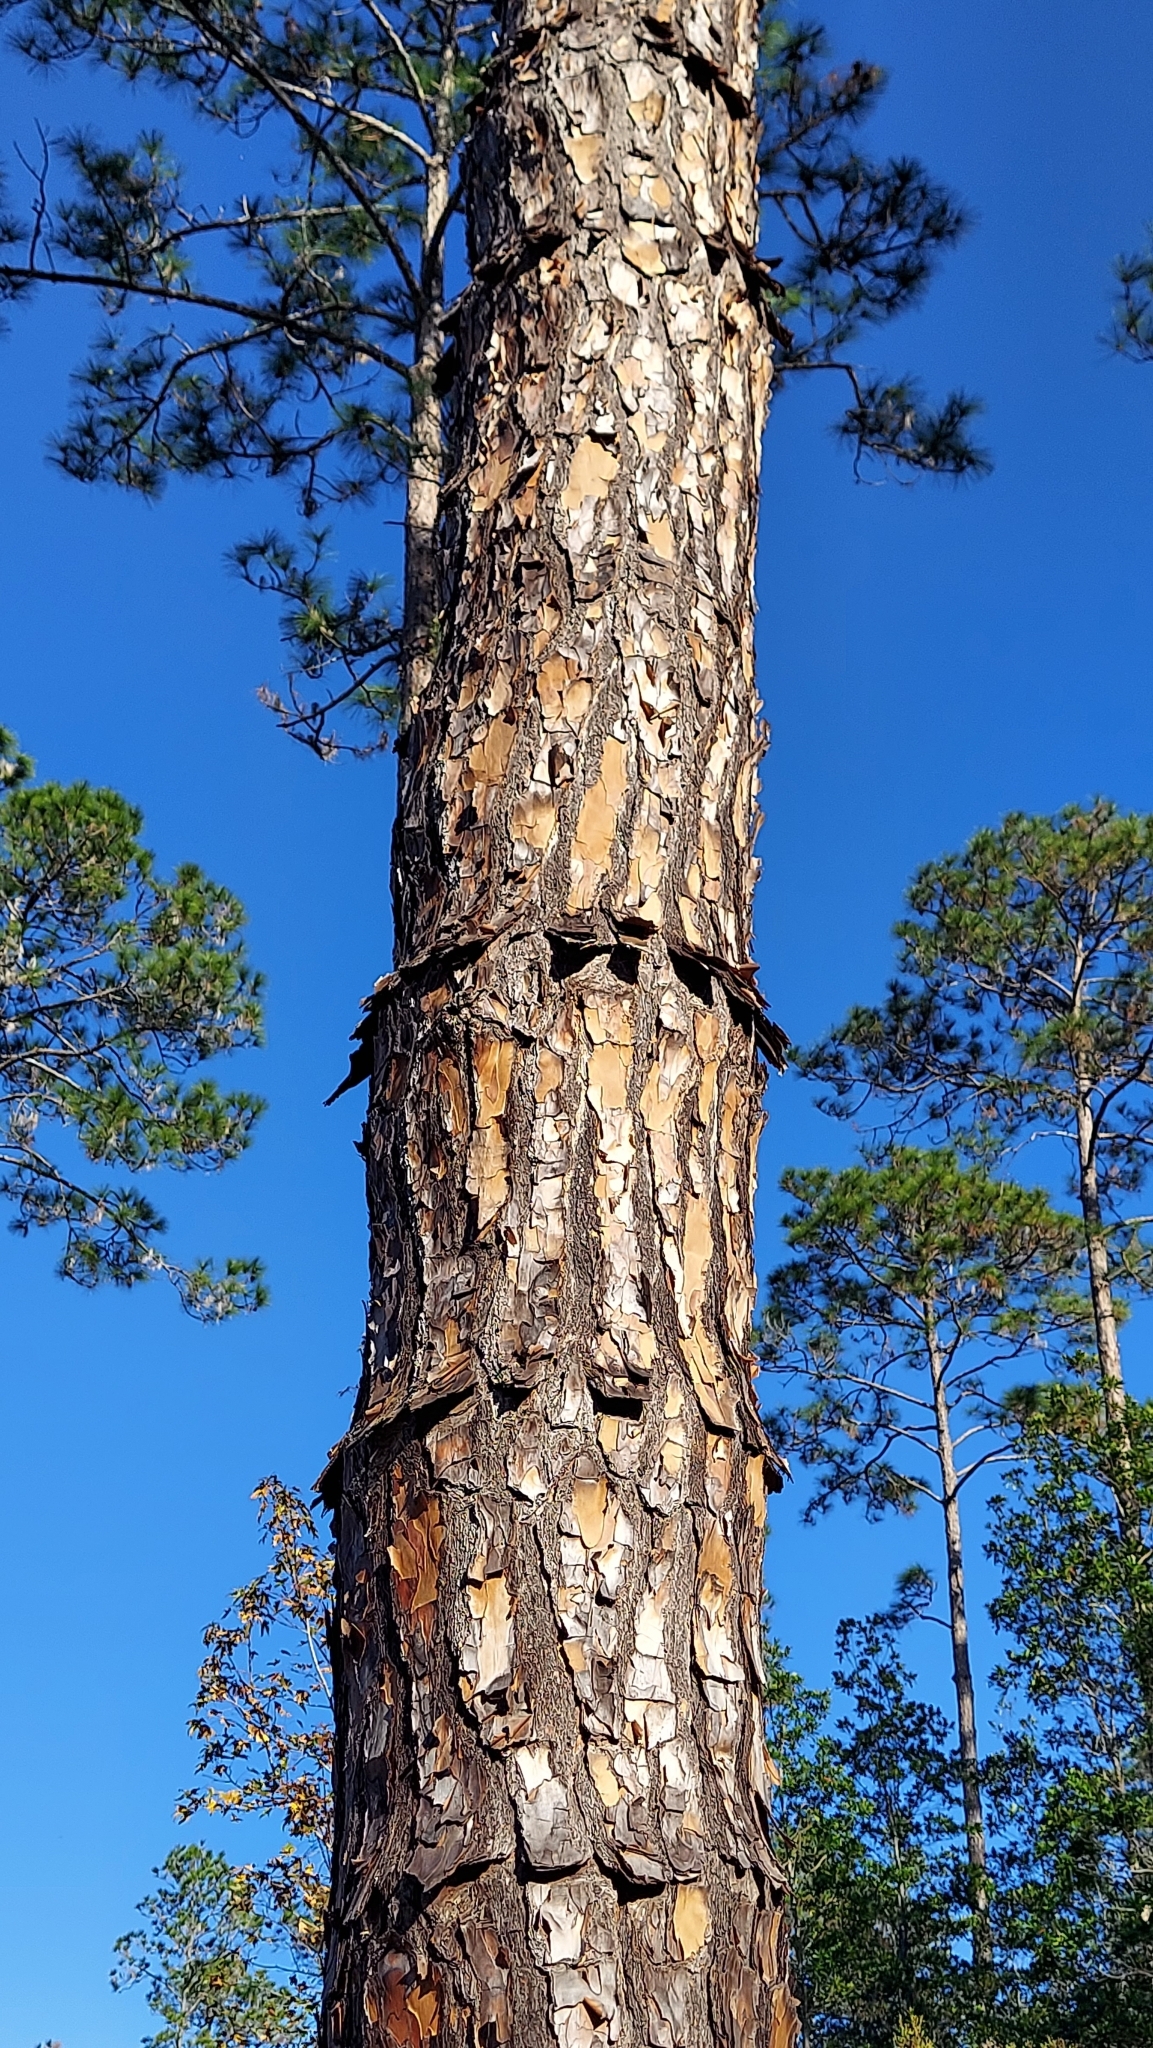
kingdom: Plantae
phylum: Tracheophyta
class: Pinopsida
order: Pinales
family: Pinaceae
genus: Pinus
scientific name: Pinus elliottii
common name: Slash pine
